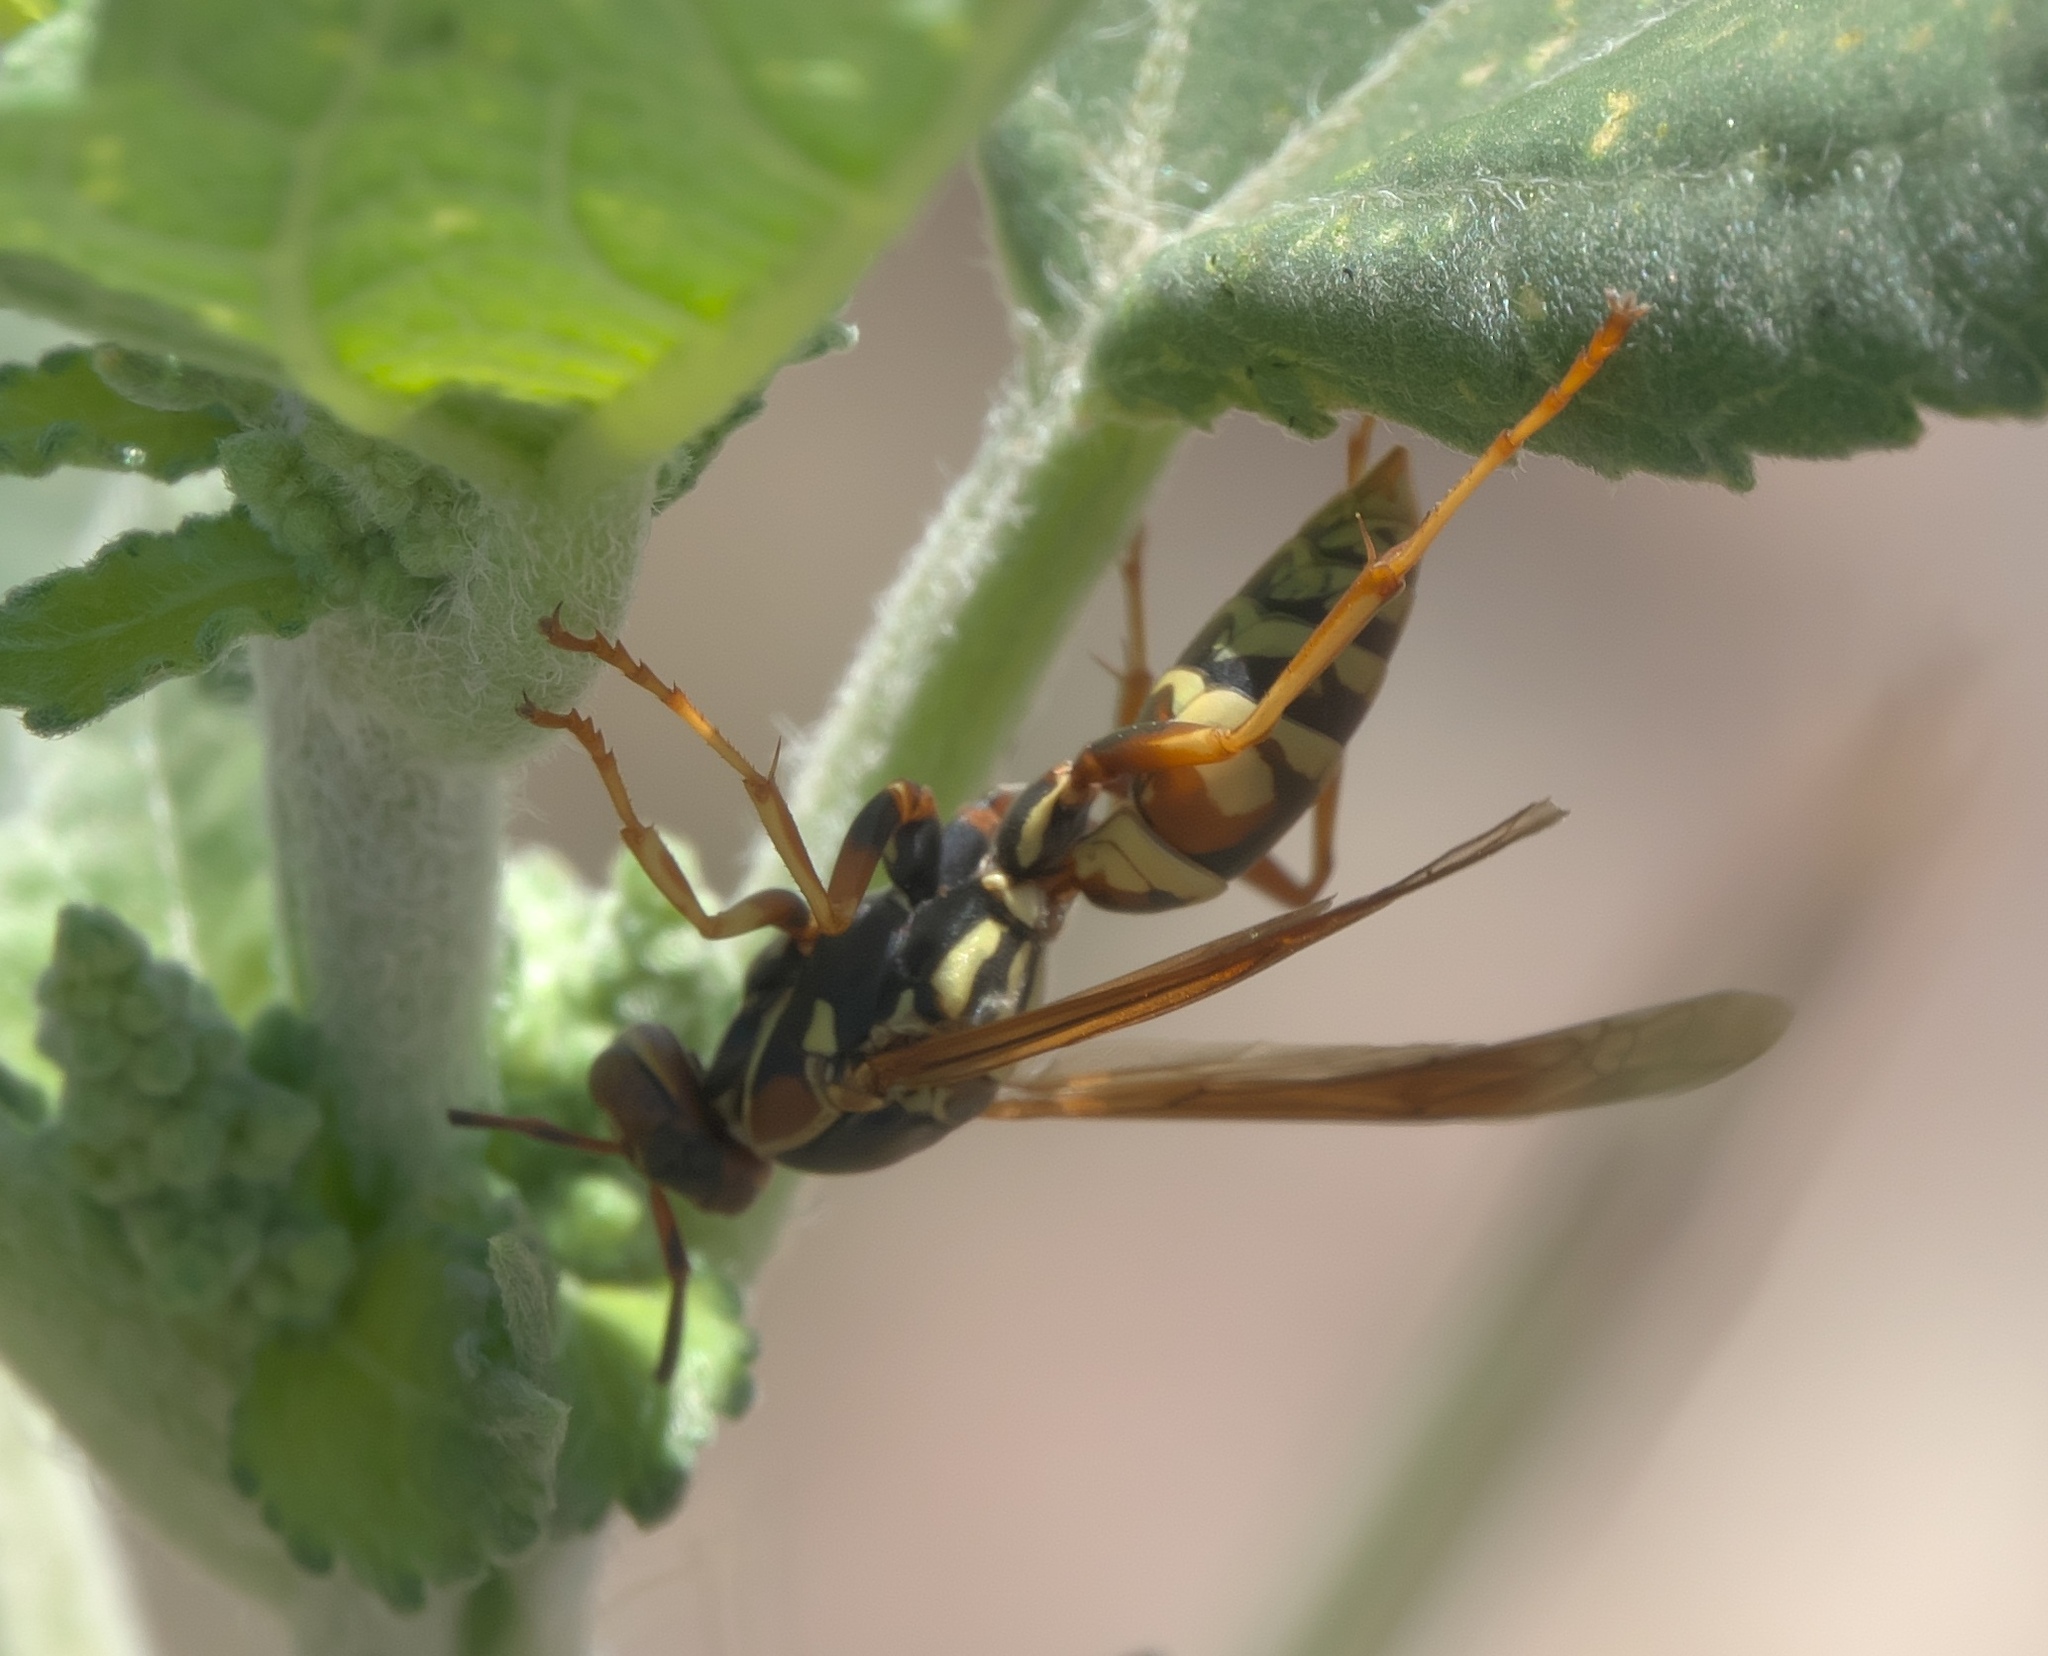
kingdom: Animalia
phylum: Arthropoda
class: Insecta
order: Hymenoptera
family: Eumenidae
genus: Polistes
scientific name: Polistes aurifer
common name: Paper wasp
